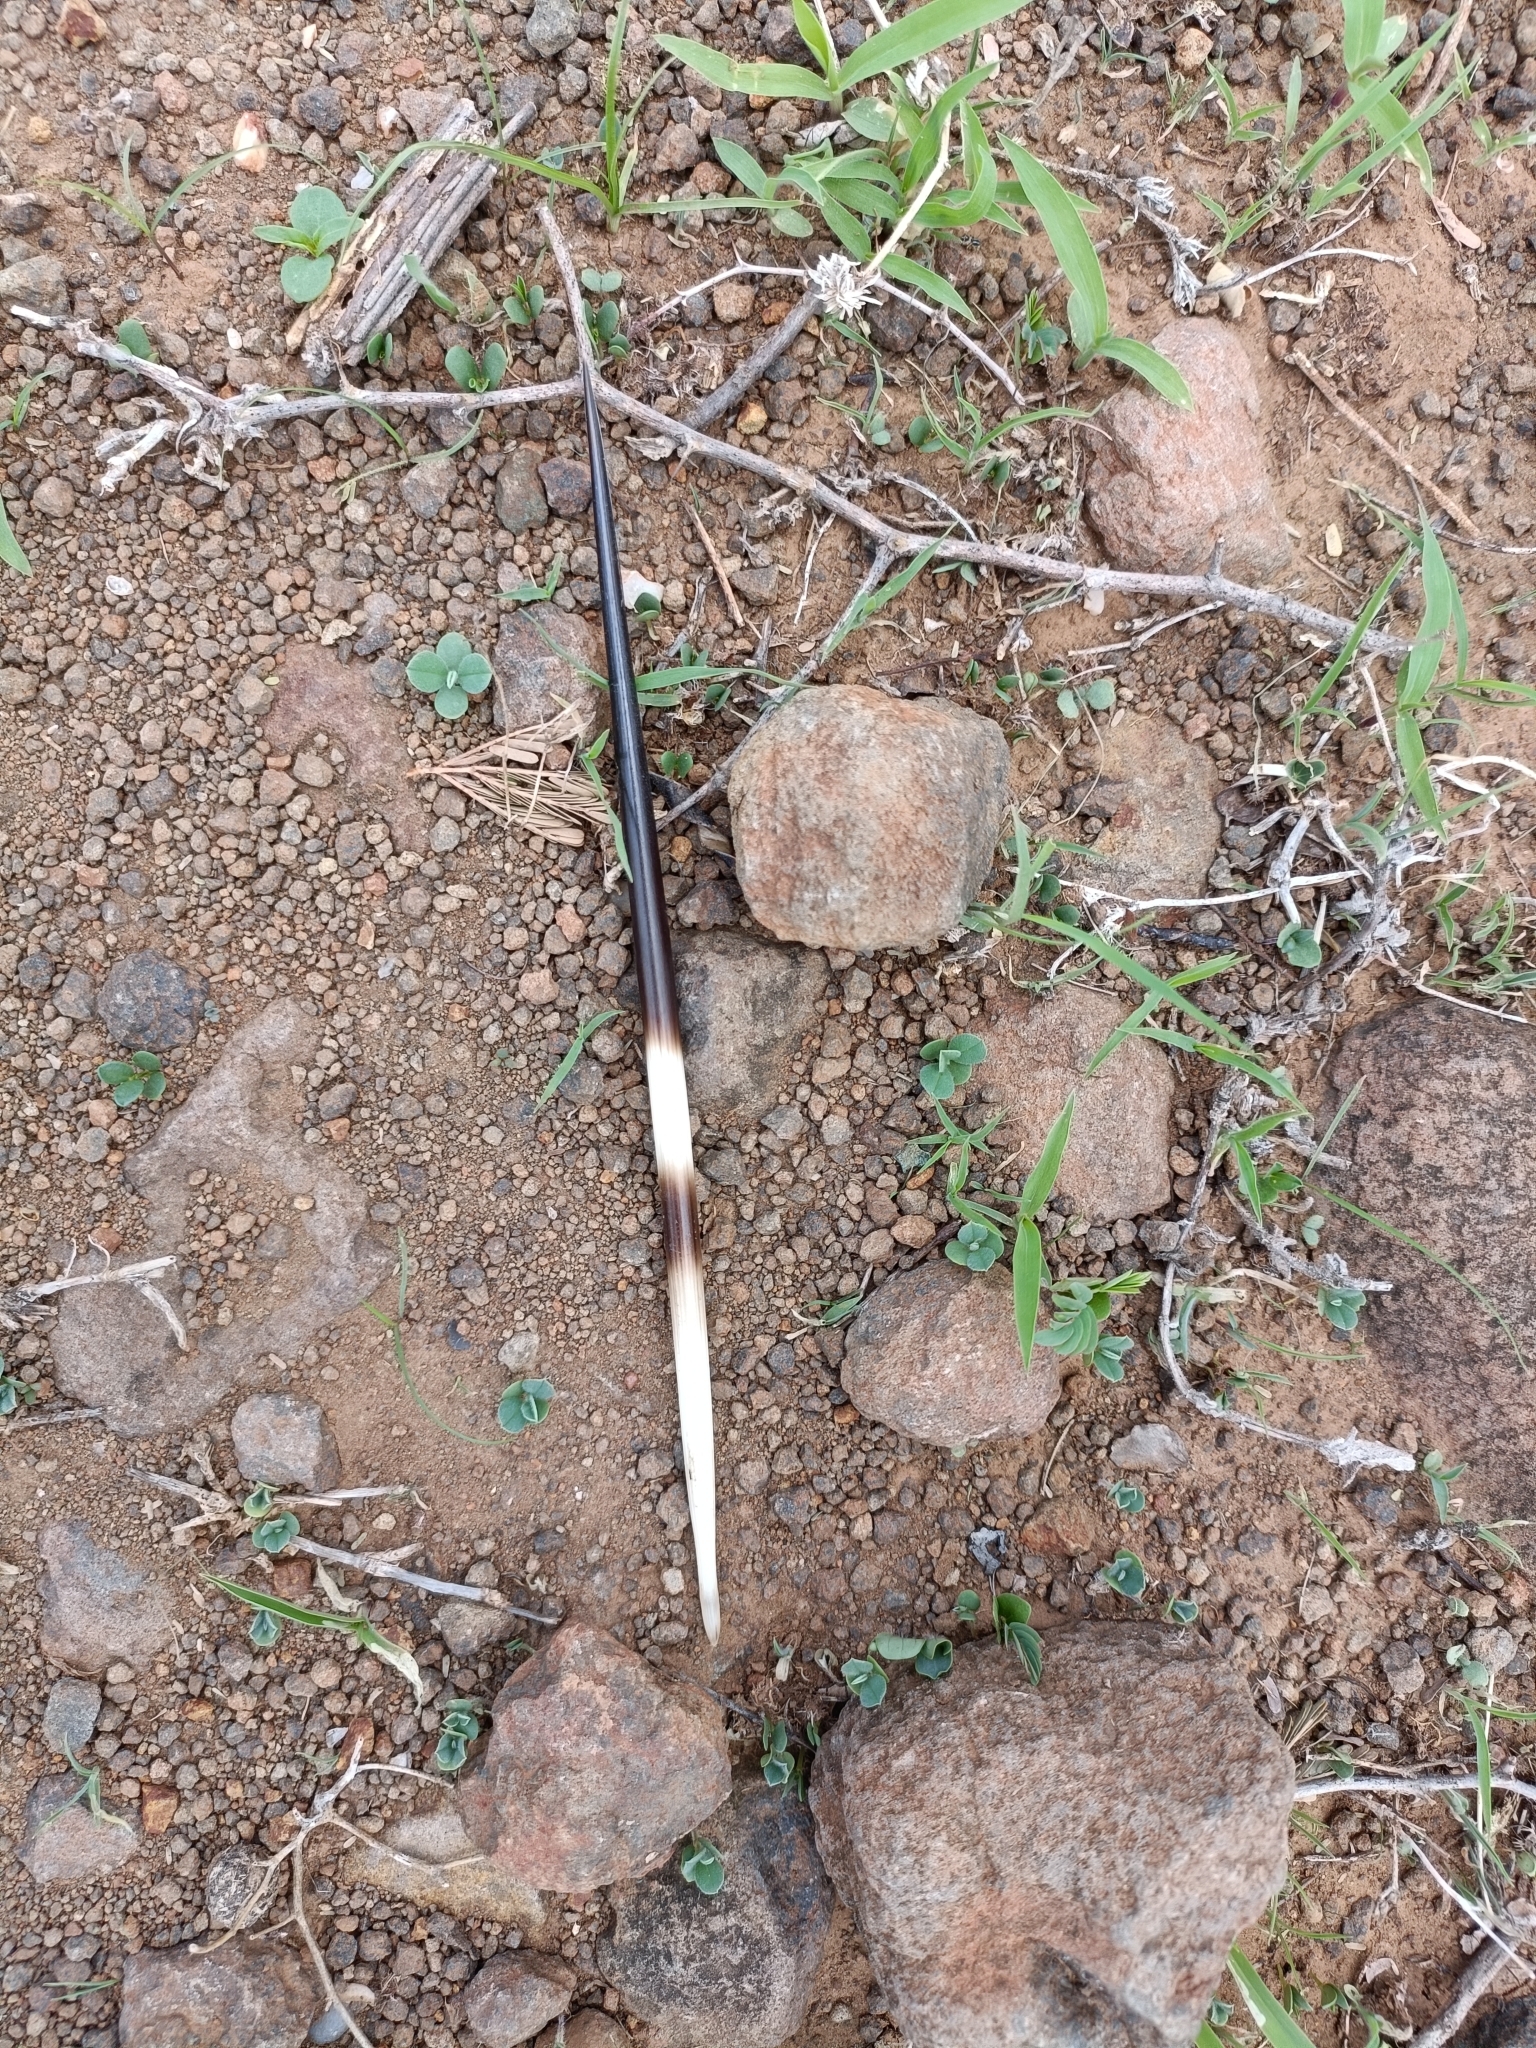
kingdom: Animalia
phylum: Chordata
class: Mammalia
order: Rodentia
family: Hystricidae
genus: Hystrix
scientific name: Hystrix indica
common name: Indian crested porcupine
